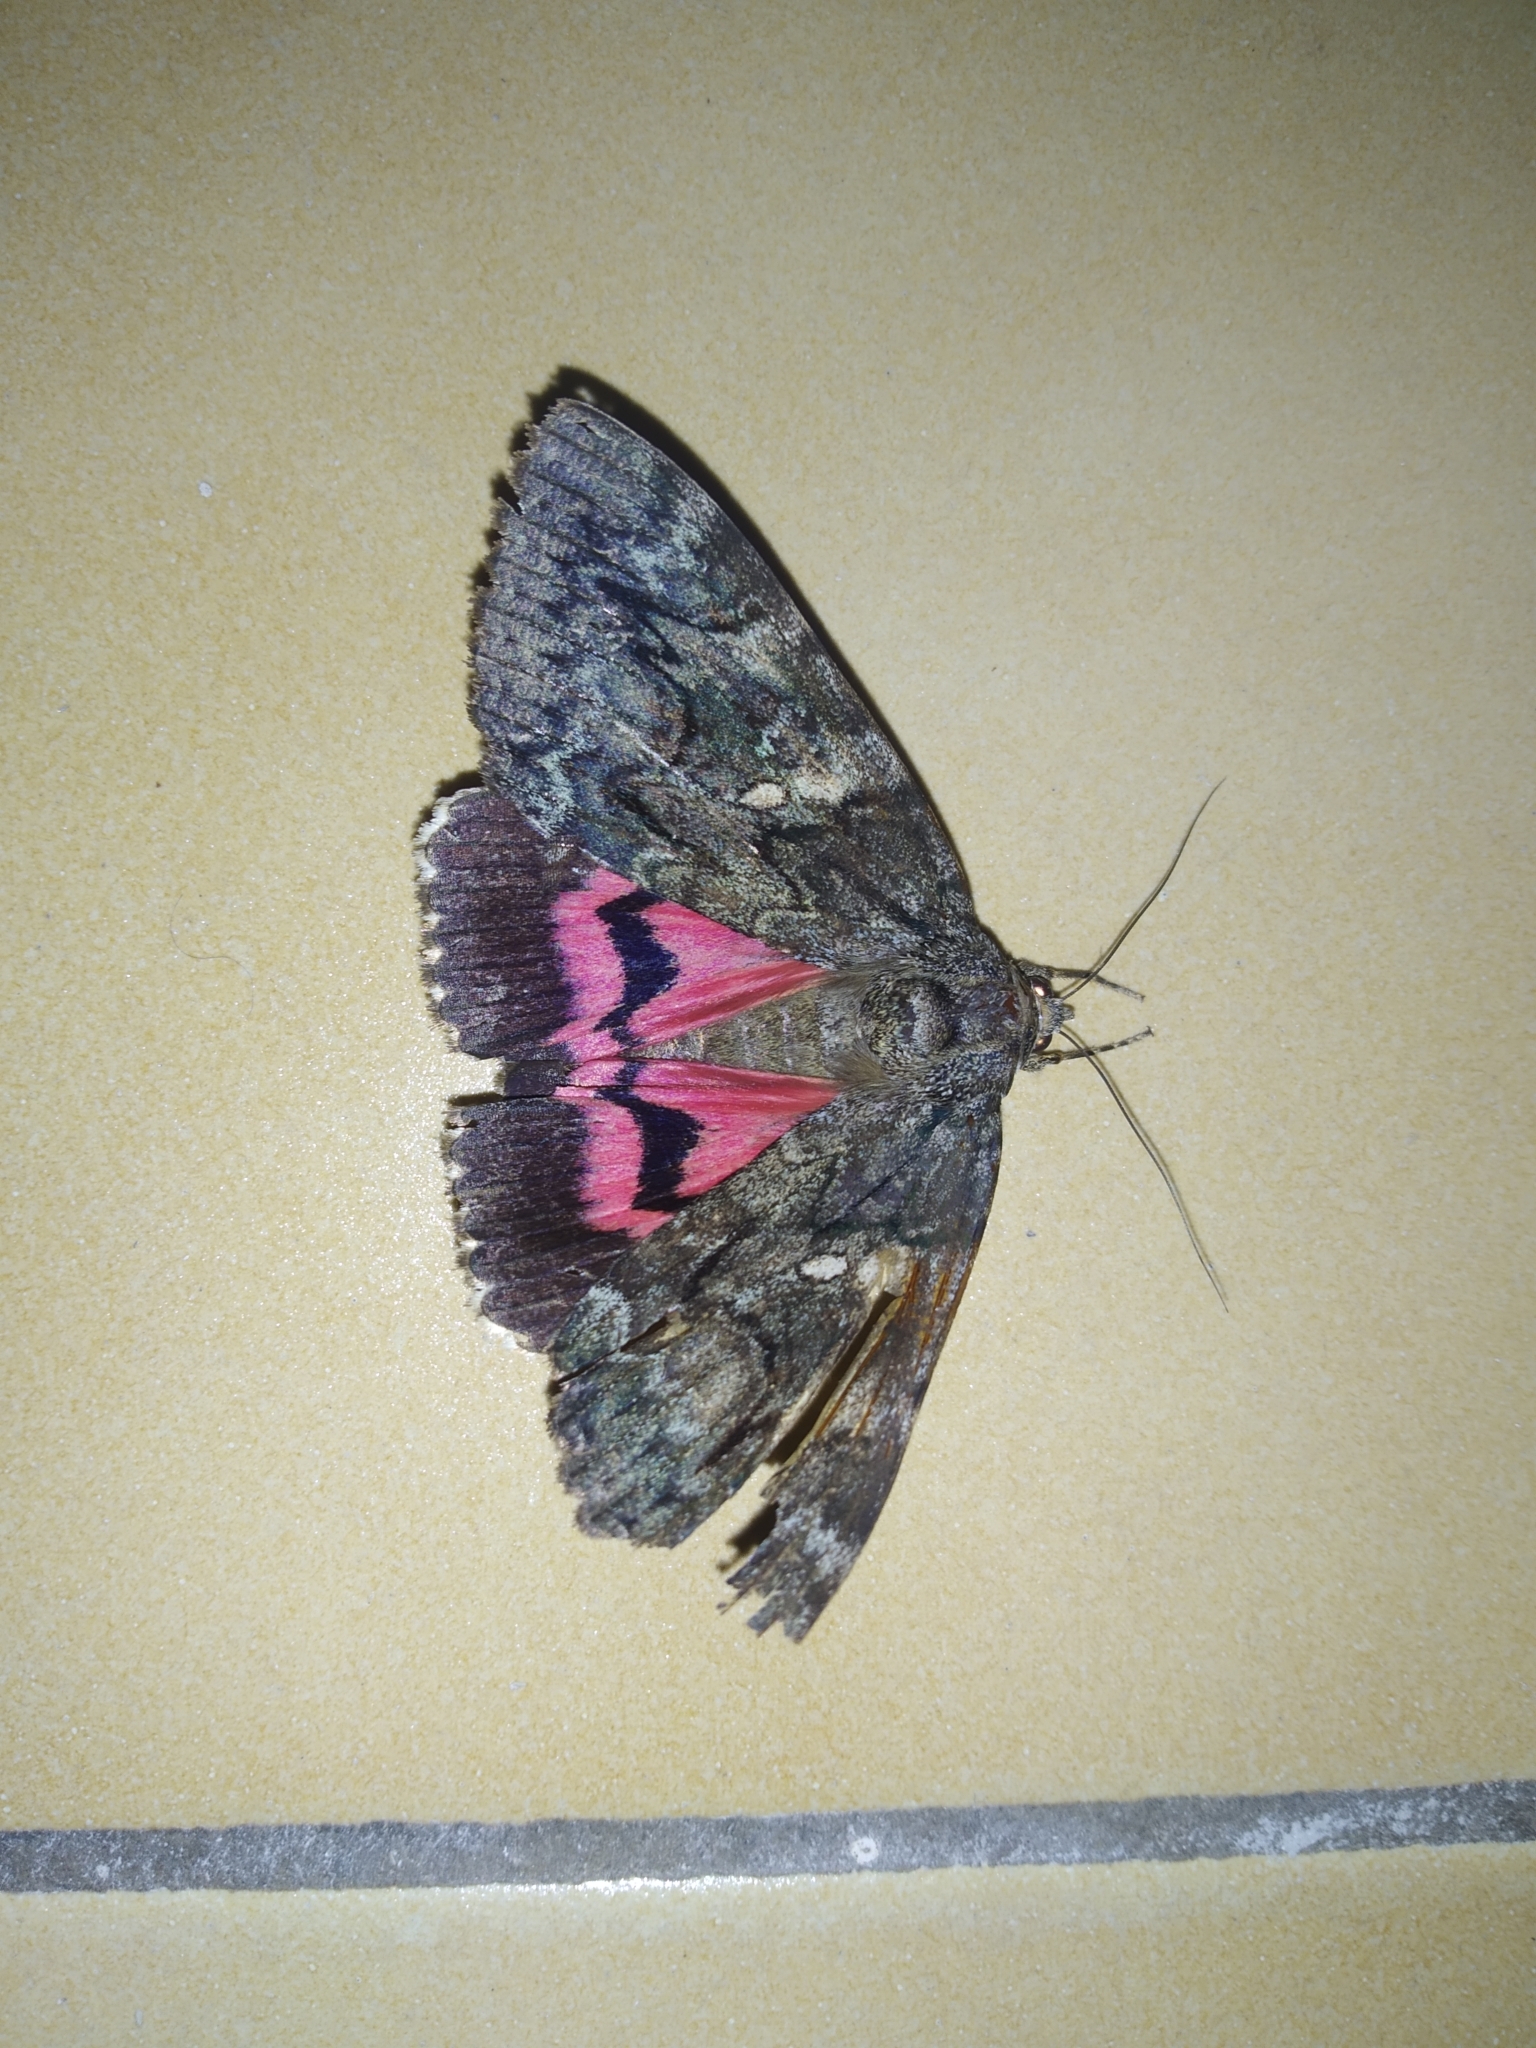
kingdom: Animalia
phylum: Arthropoda
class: Insecta
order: Lepidoptera
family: Erebidae
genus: Catocala
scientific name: Catocala dilecta
